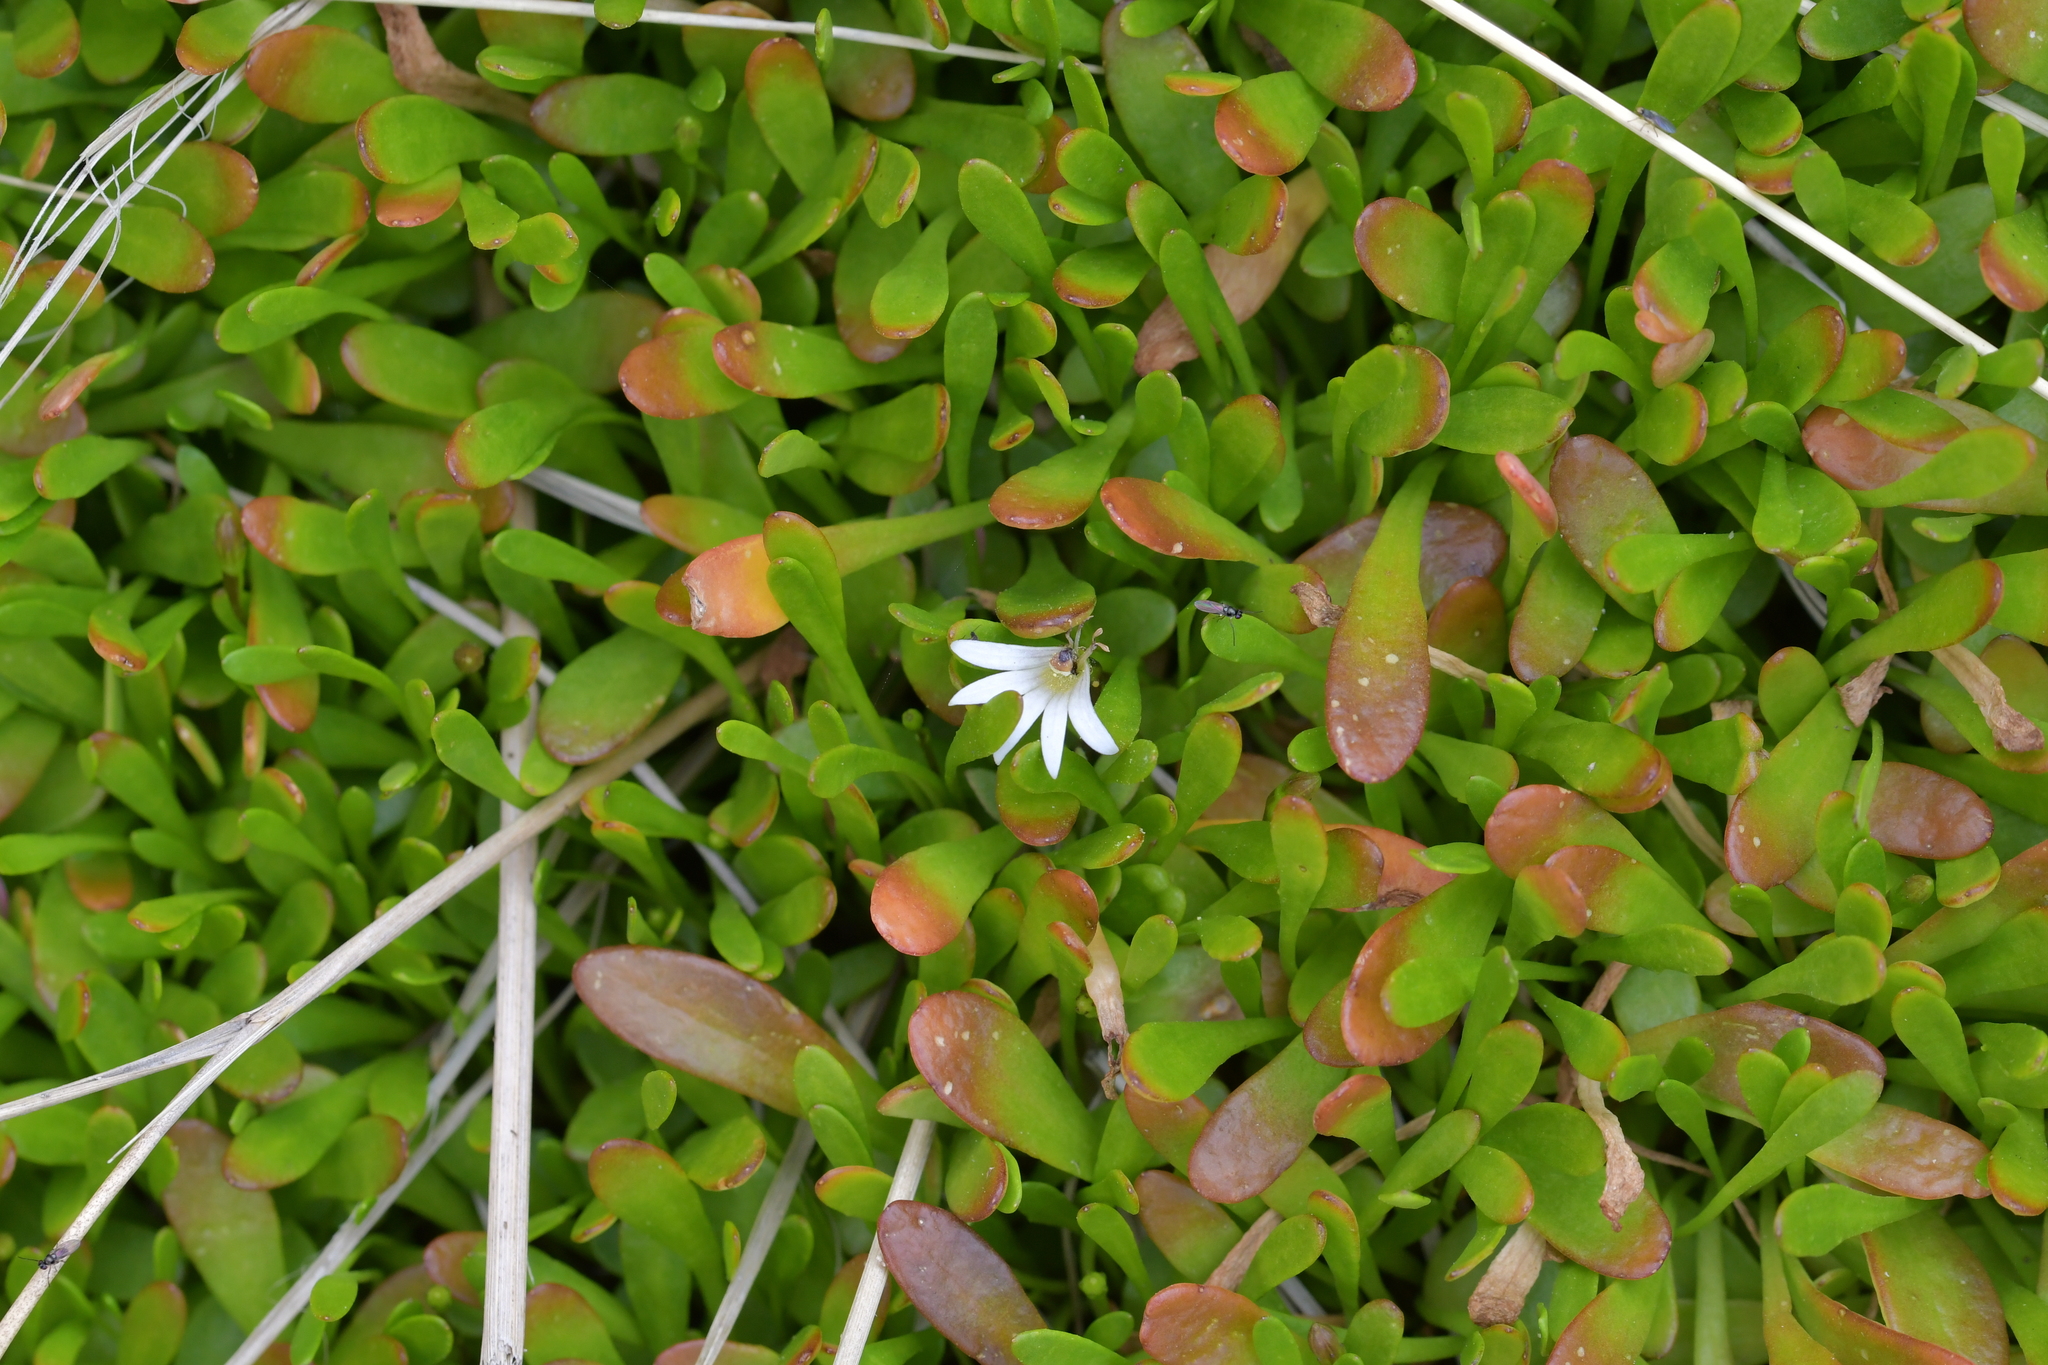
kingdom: Plantae
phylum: Tracheophyta
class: Magnoliopsida
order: Asterales
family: Goodeniaceae
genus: Goodenia
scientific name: Goodenia radicans
